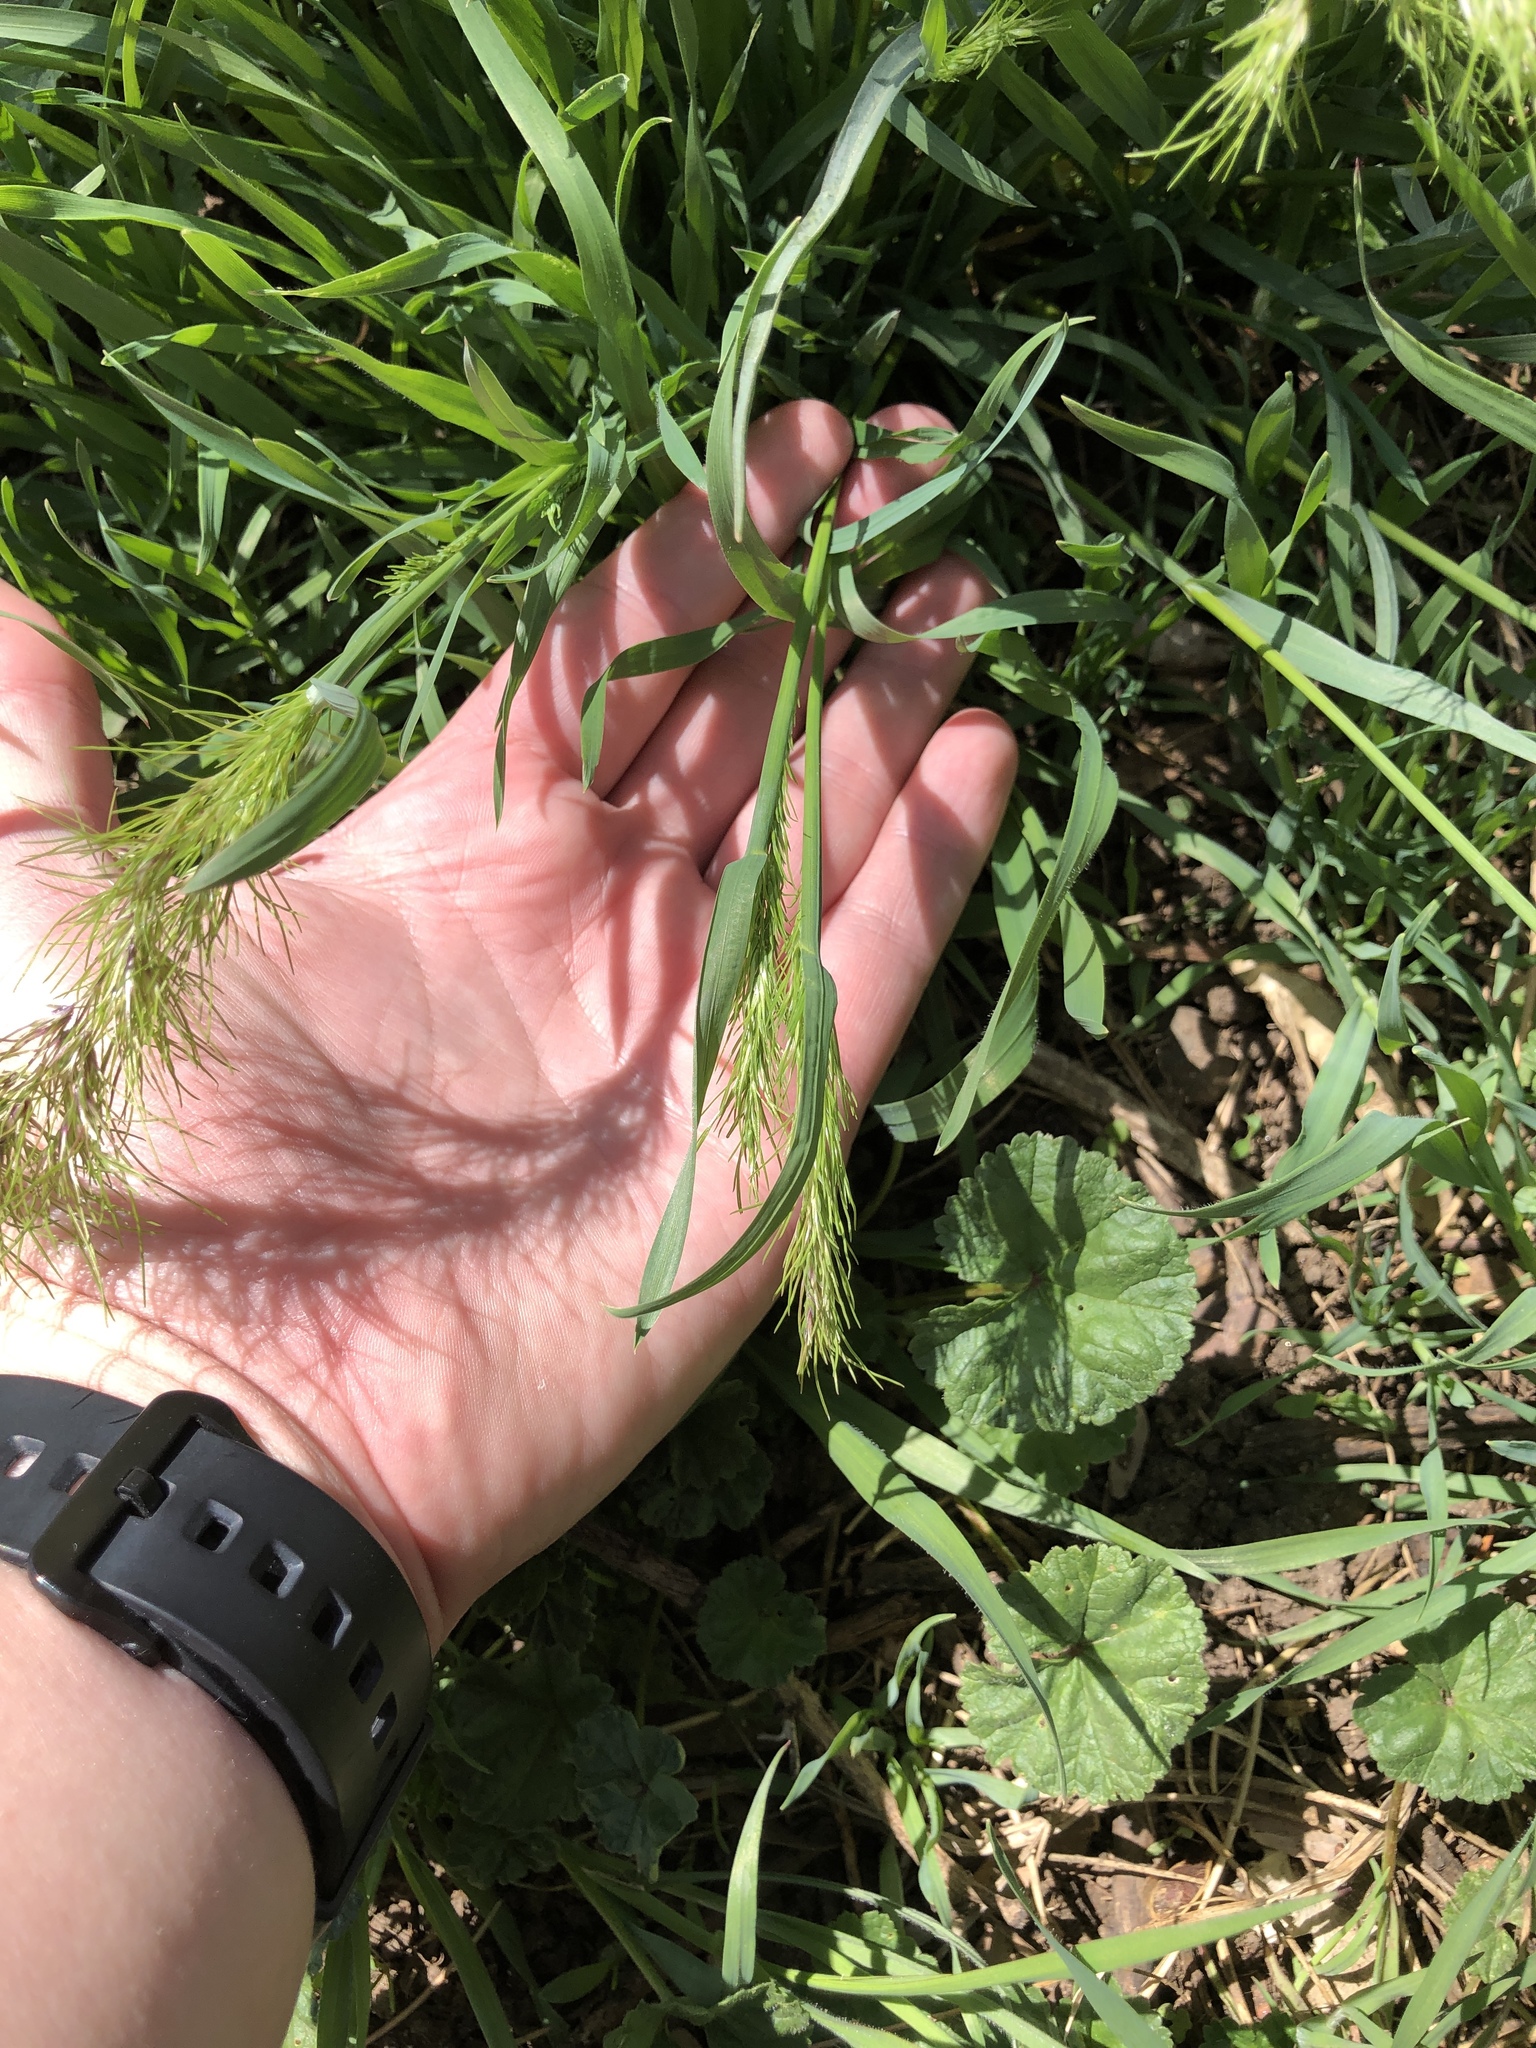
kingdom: Plantae
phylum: Tracheophyta
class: Liliopsida
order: Poales
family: Poaceae
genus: Poa
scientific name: Poa bulbosa
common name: Bulbous bluegrass
